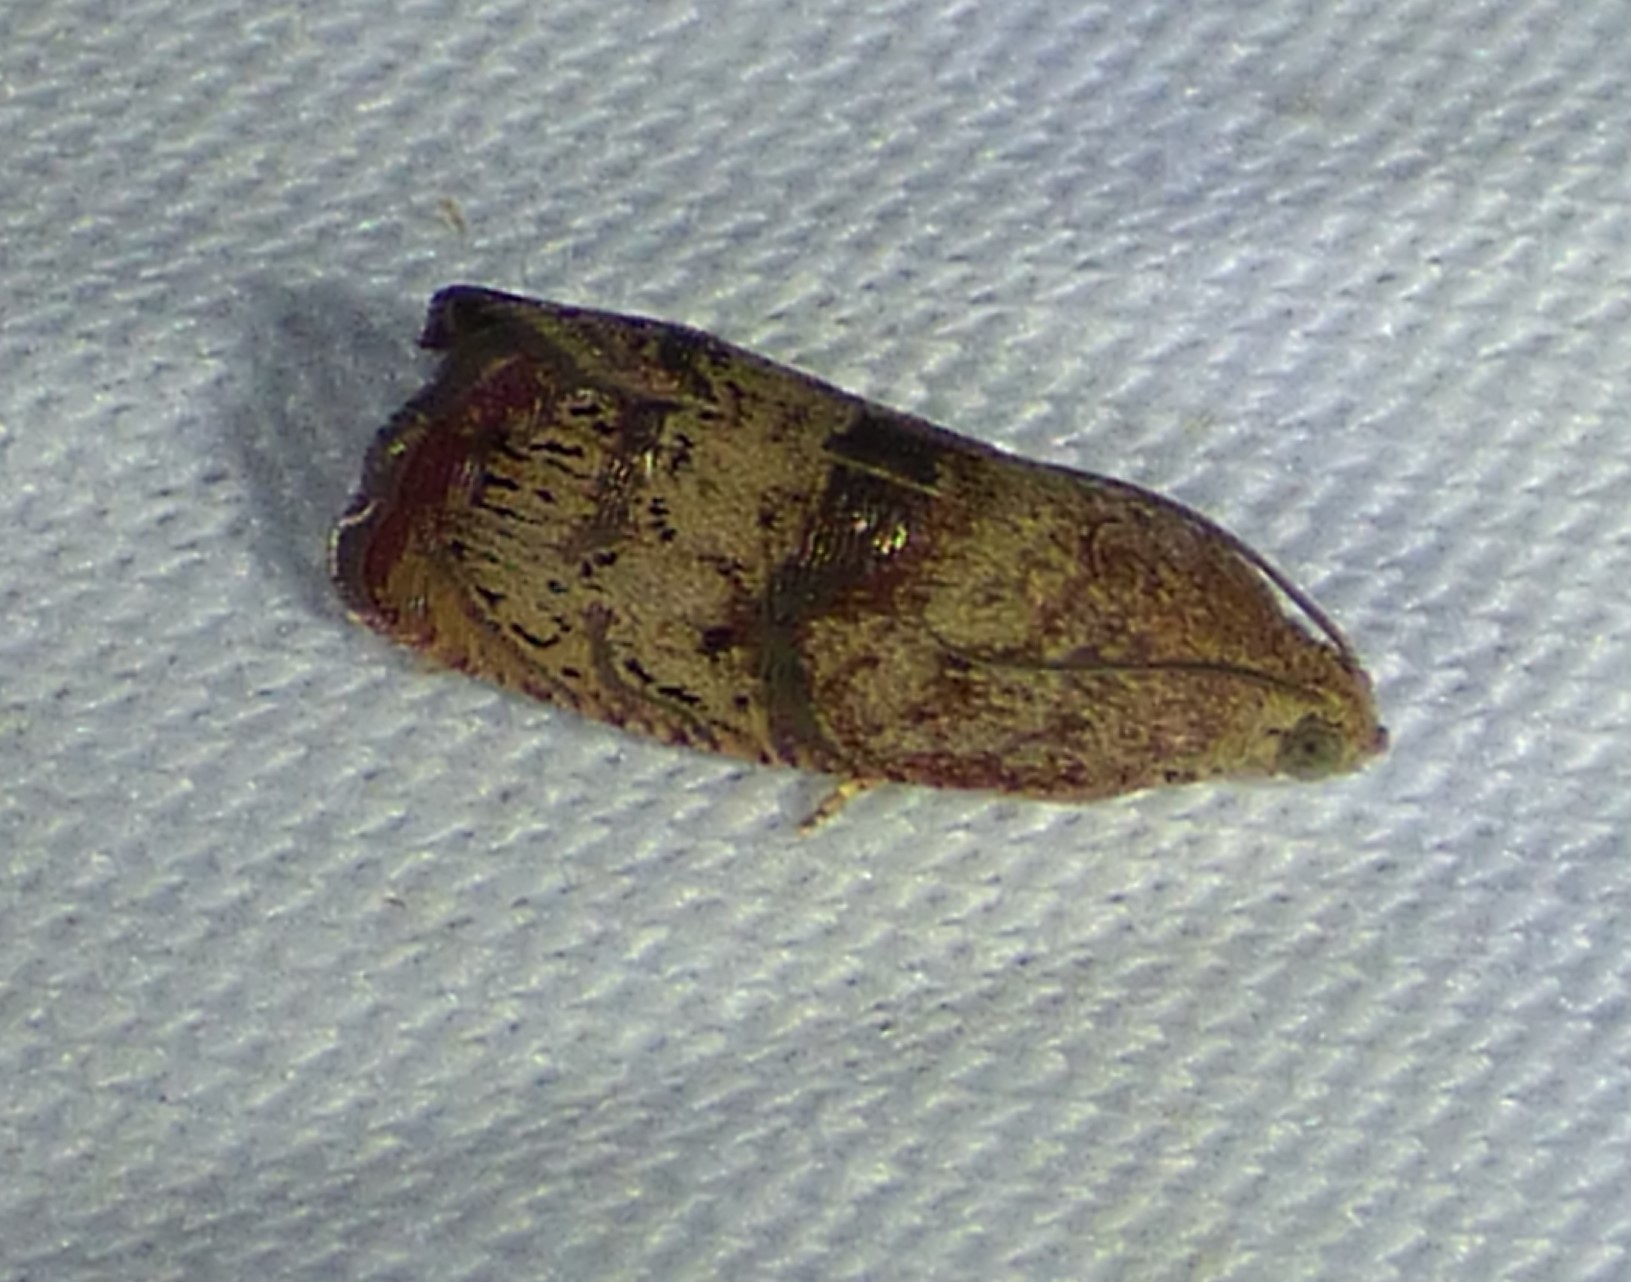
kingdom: Animalia
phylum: Arthropoda
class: Insecta
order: Lepidoptera
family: Tortricidae
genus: Cydia
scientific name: Cydia latiferreana
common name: Filbertworm moth
